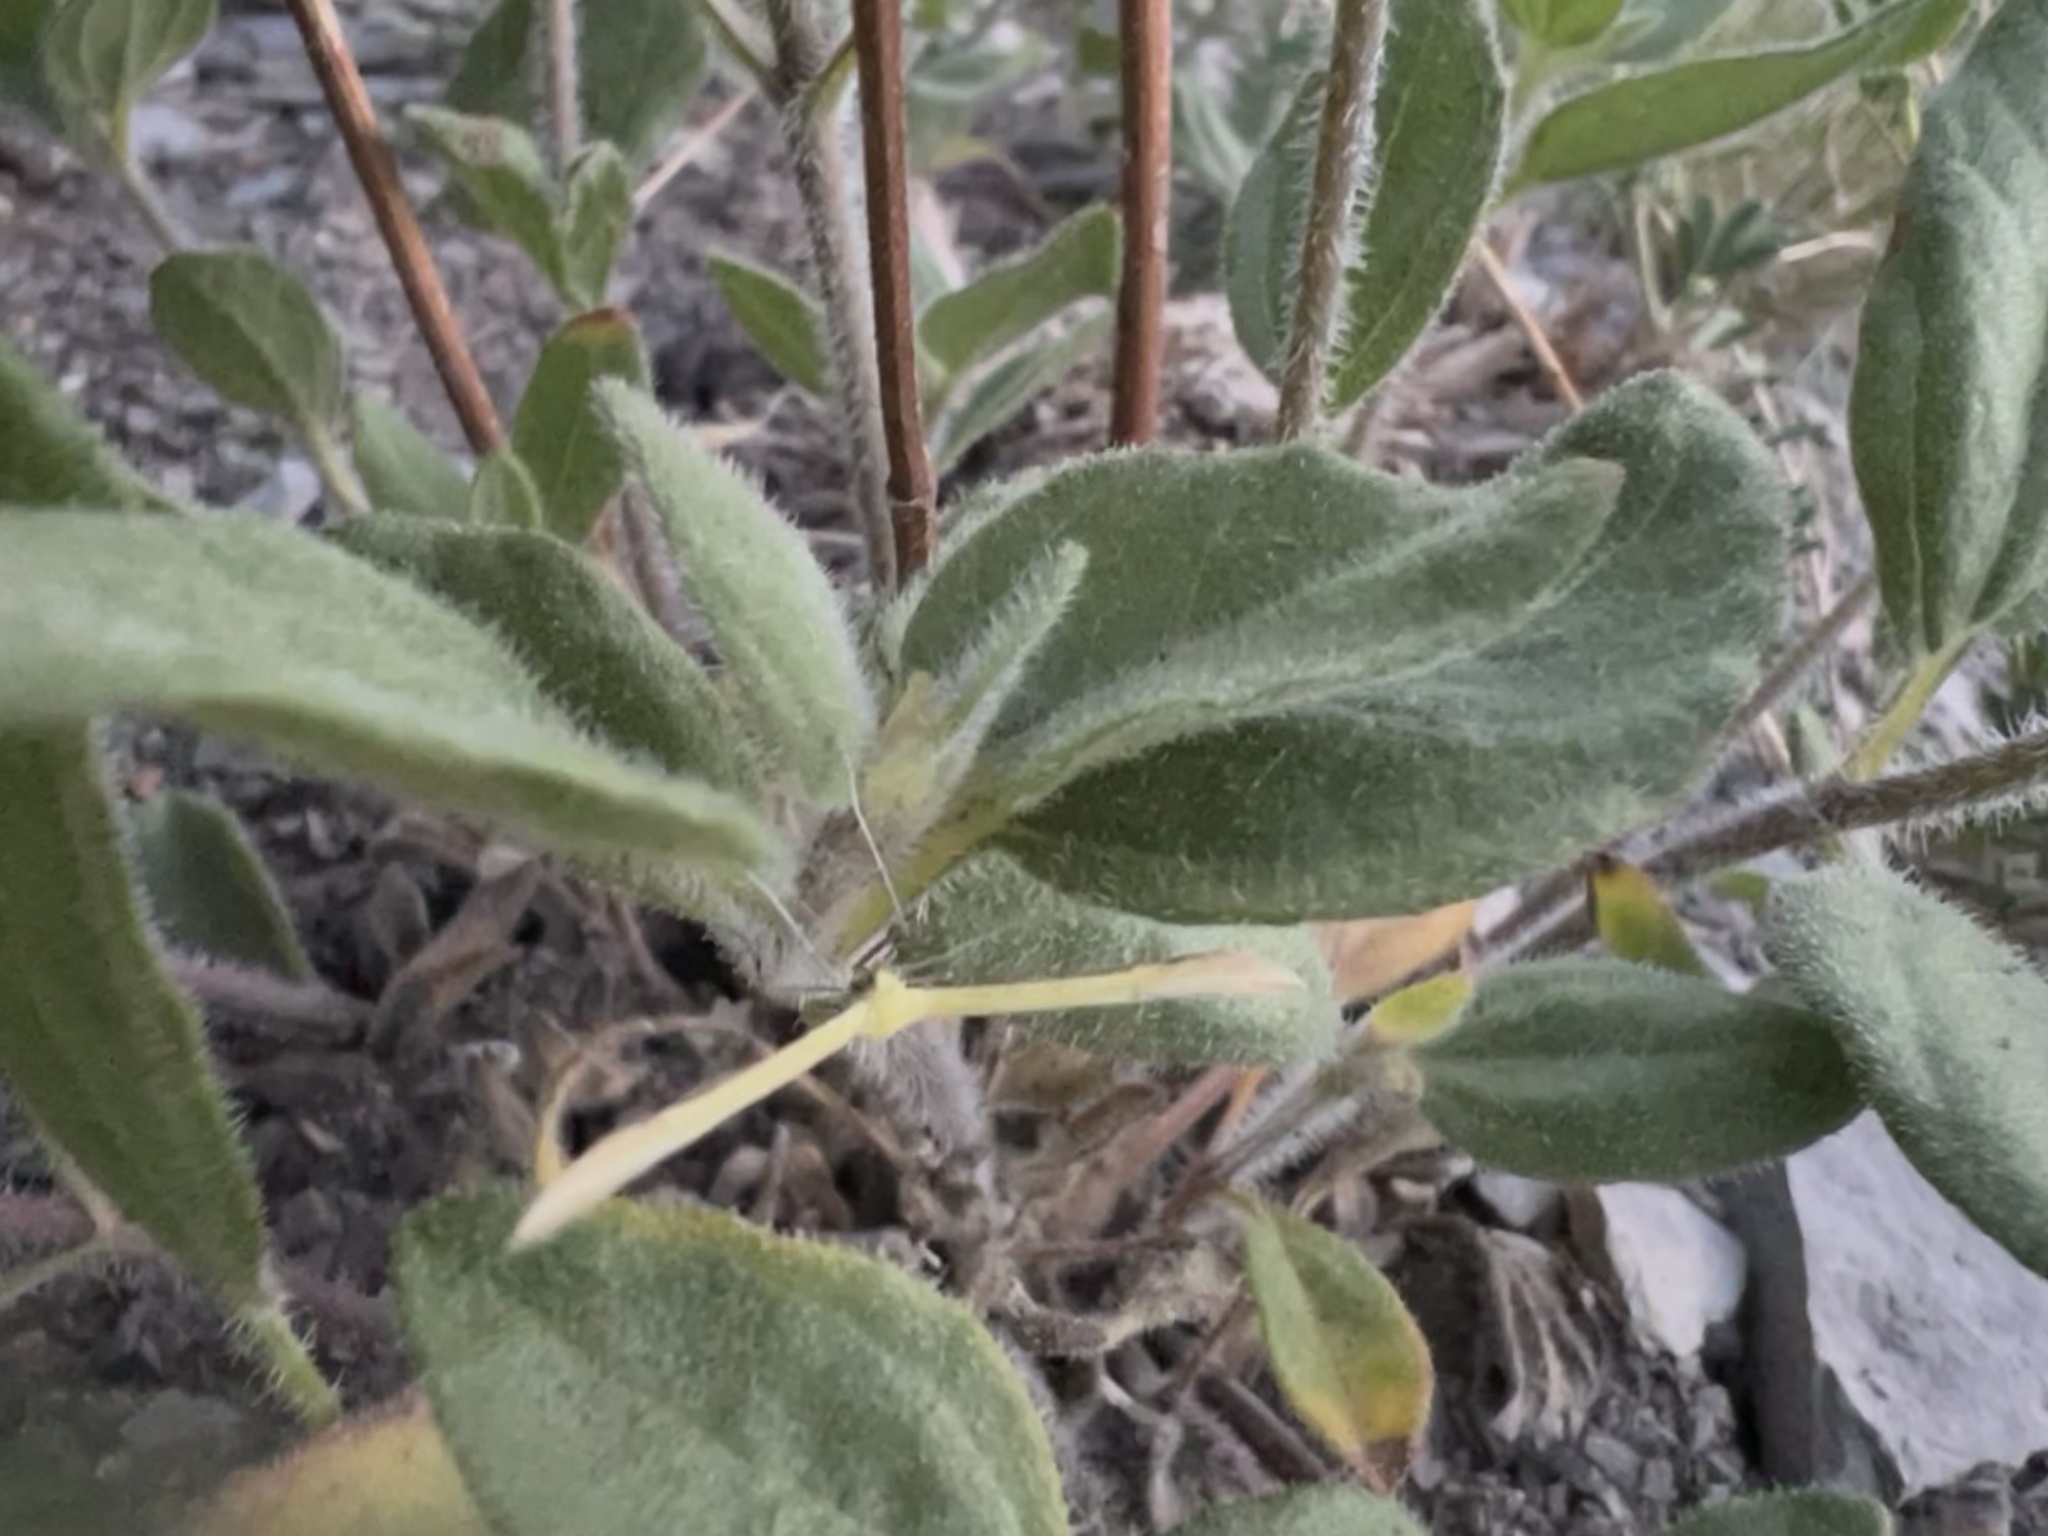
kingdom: Animalia
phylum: Arthropoda
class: Insecta
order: Lepidoptera
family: Pterophoridae
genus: Hellinsia
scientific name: Hellinsia sulphureodactylus
